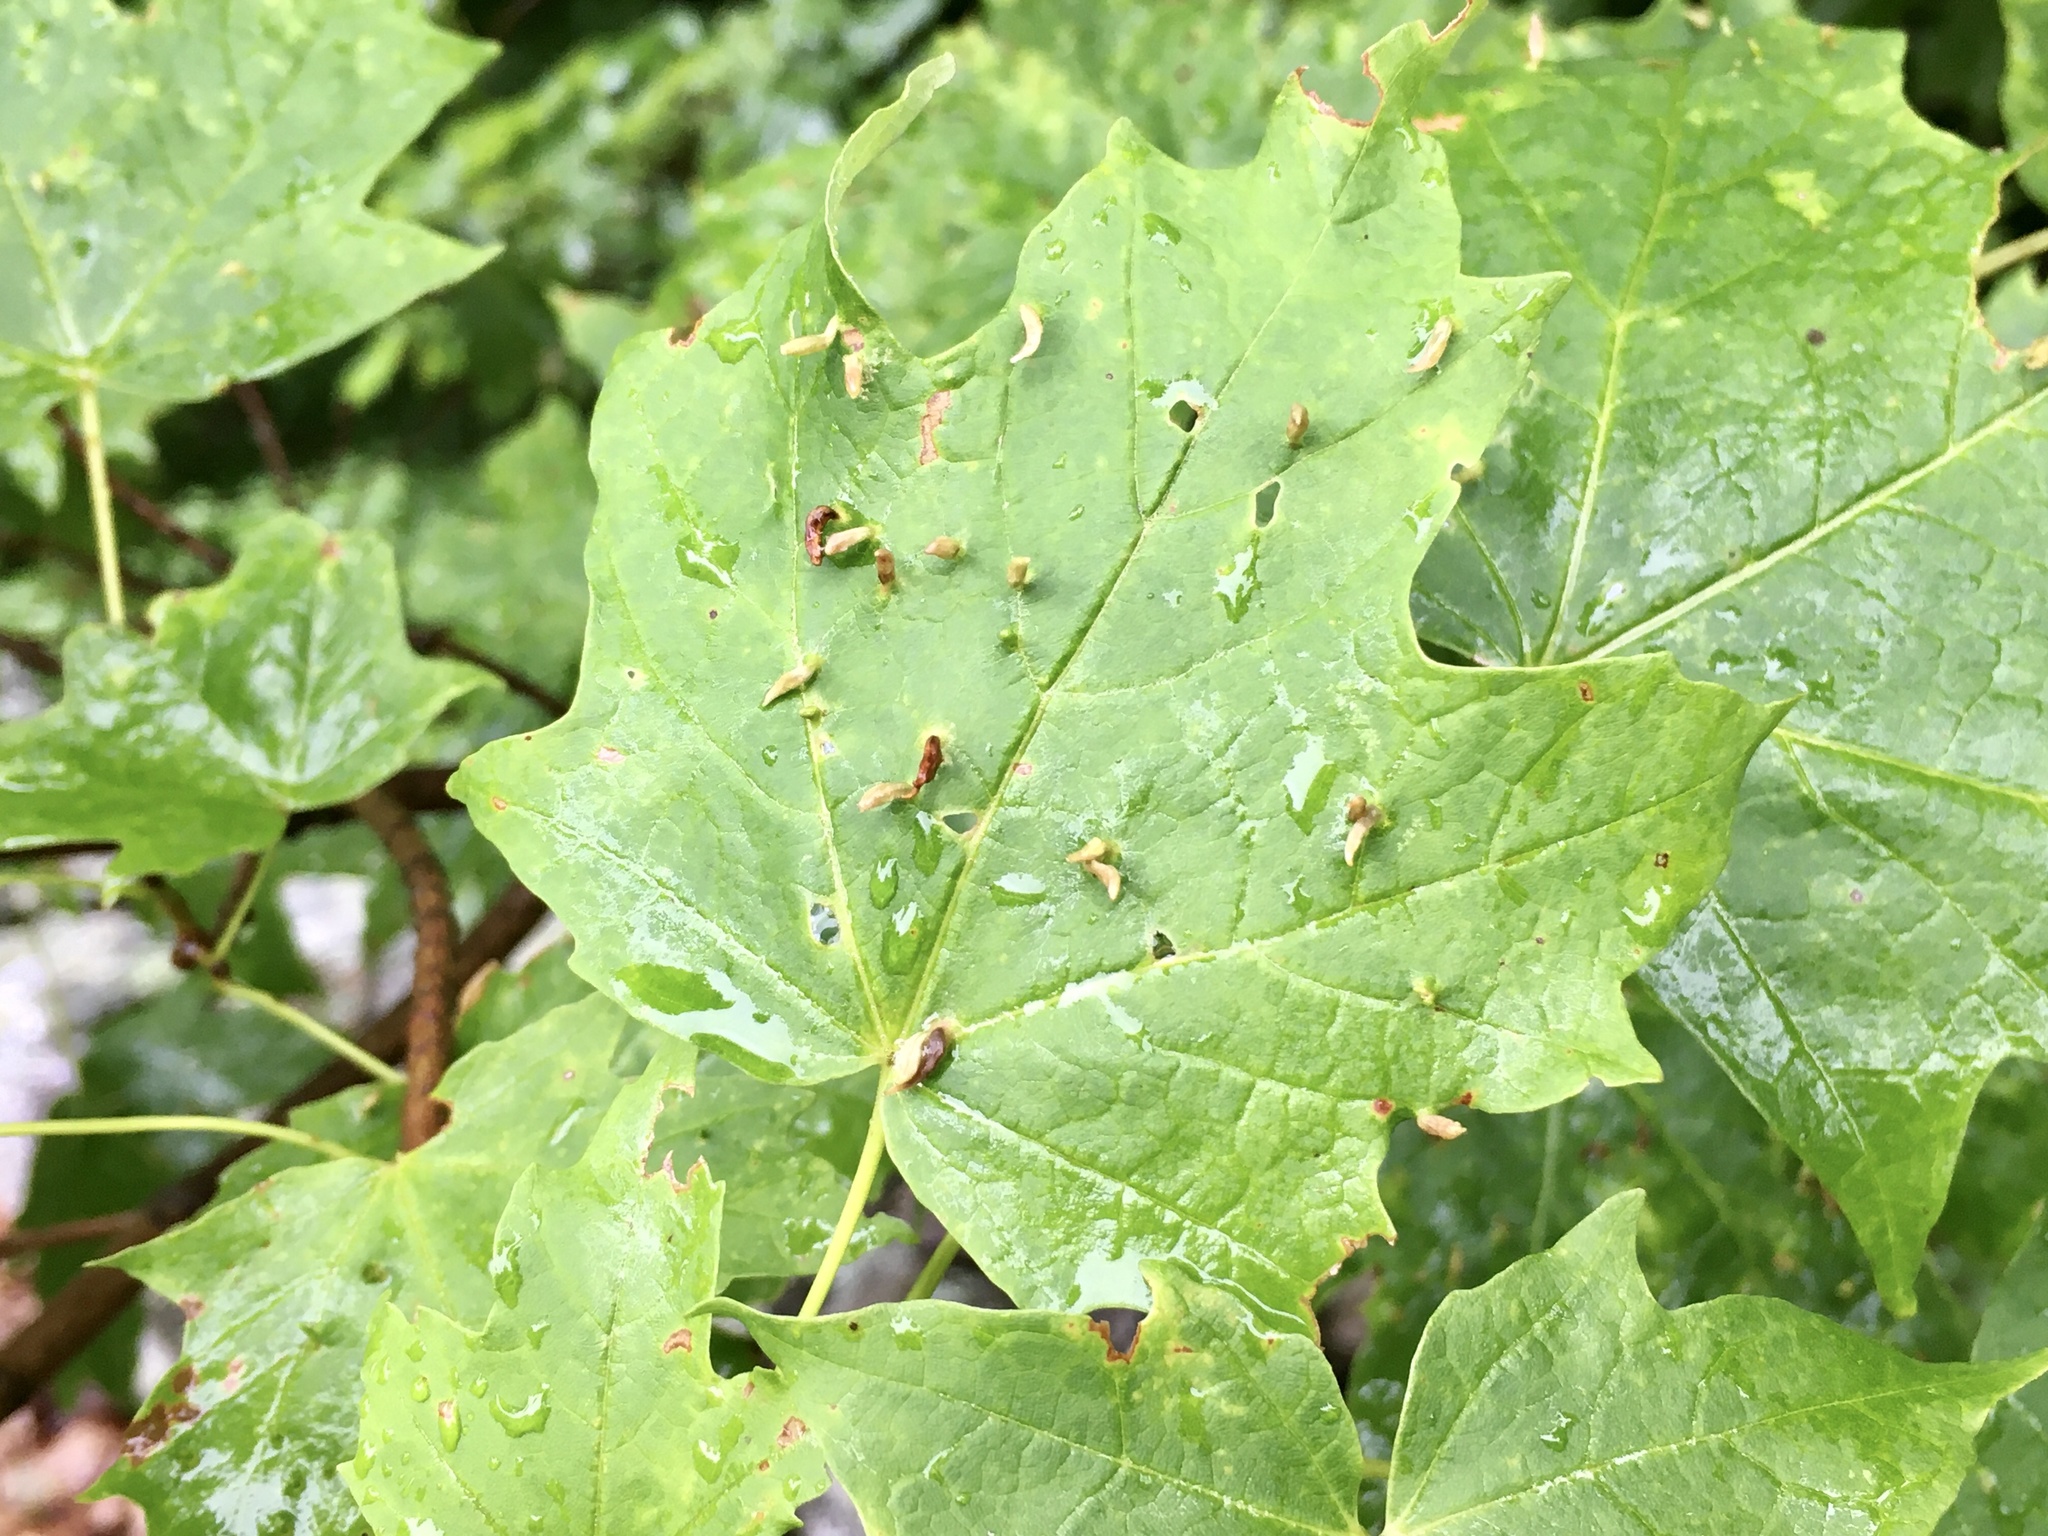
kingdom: Animalia
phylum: Arthropoda
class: Arachnida
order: Trombidiformes
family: Eriophyidae
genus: Vasates
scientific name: Vasates aceriscrumena
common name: Maple spindle gall mite
